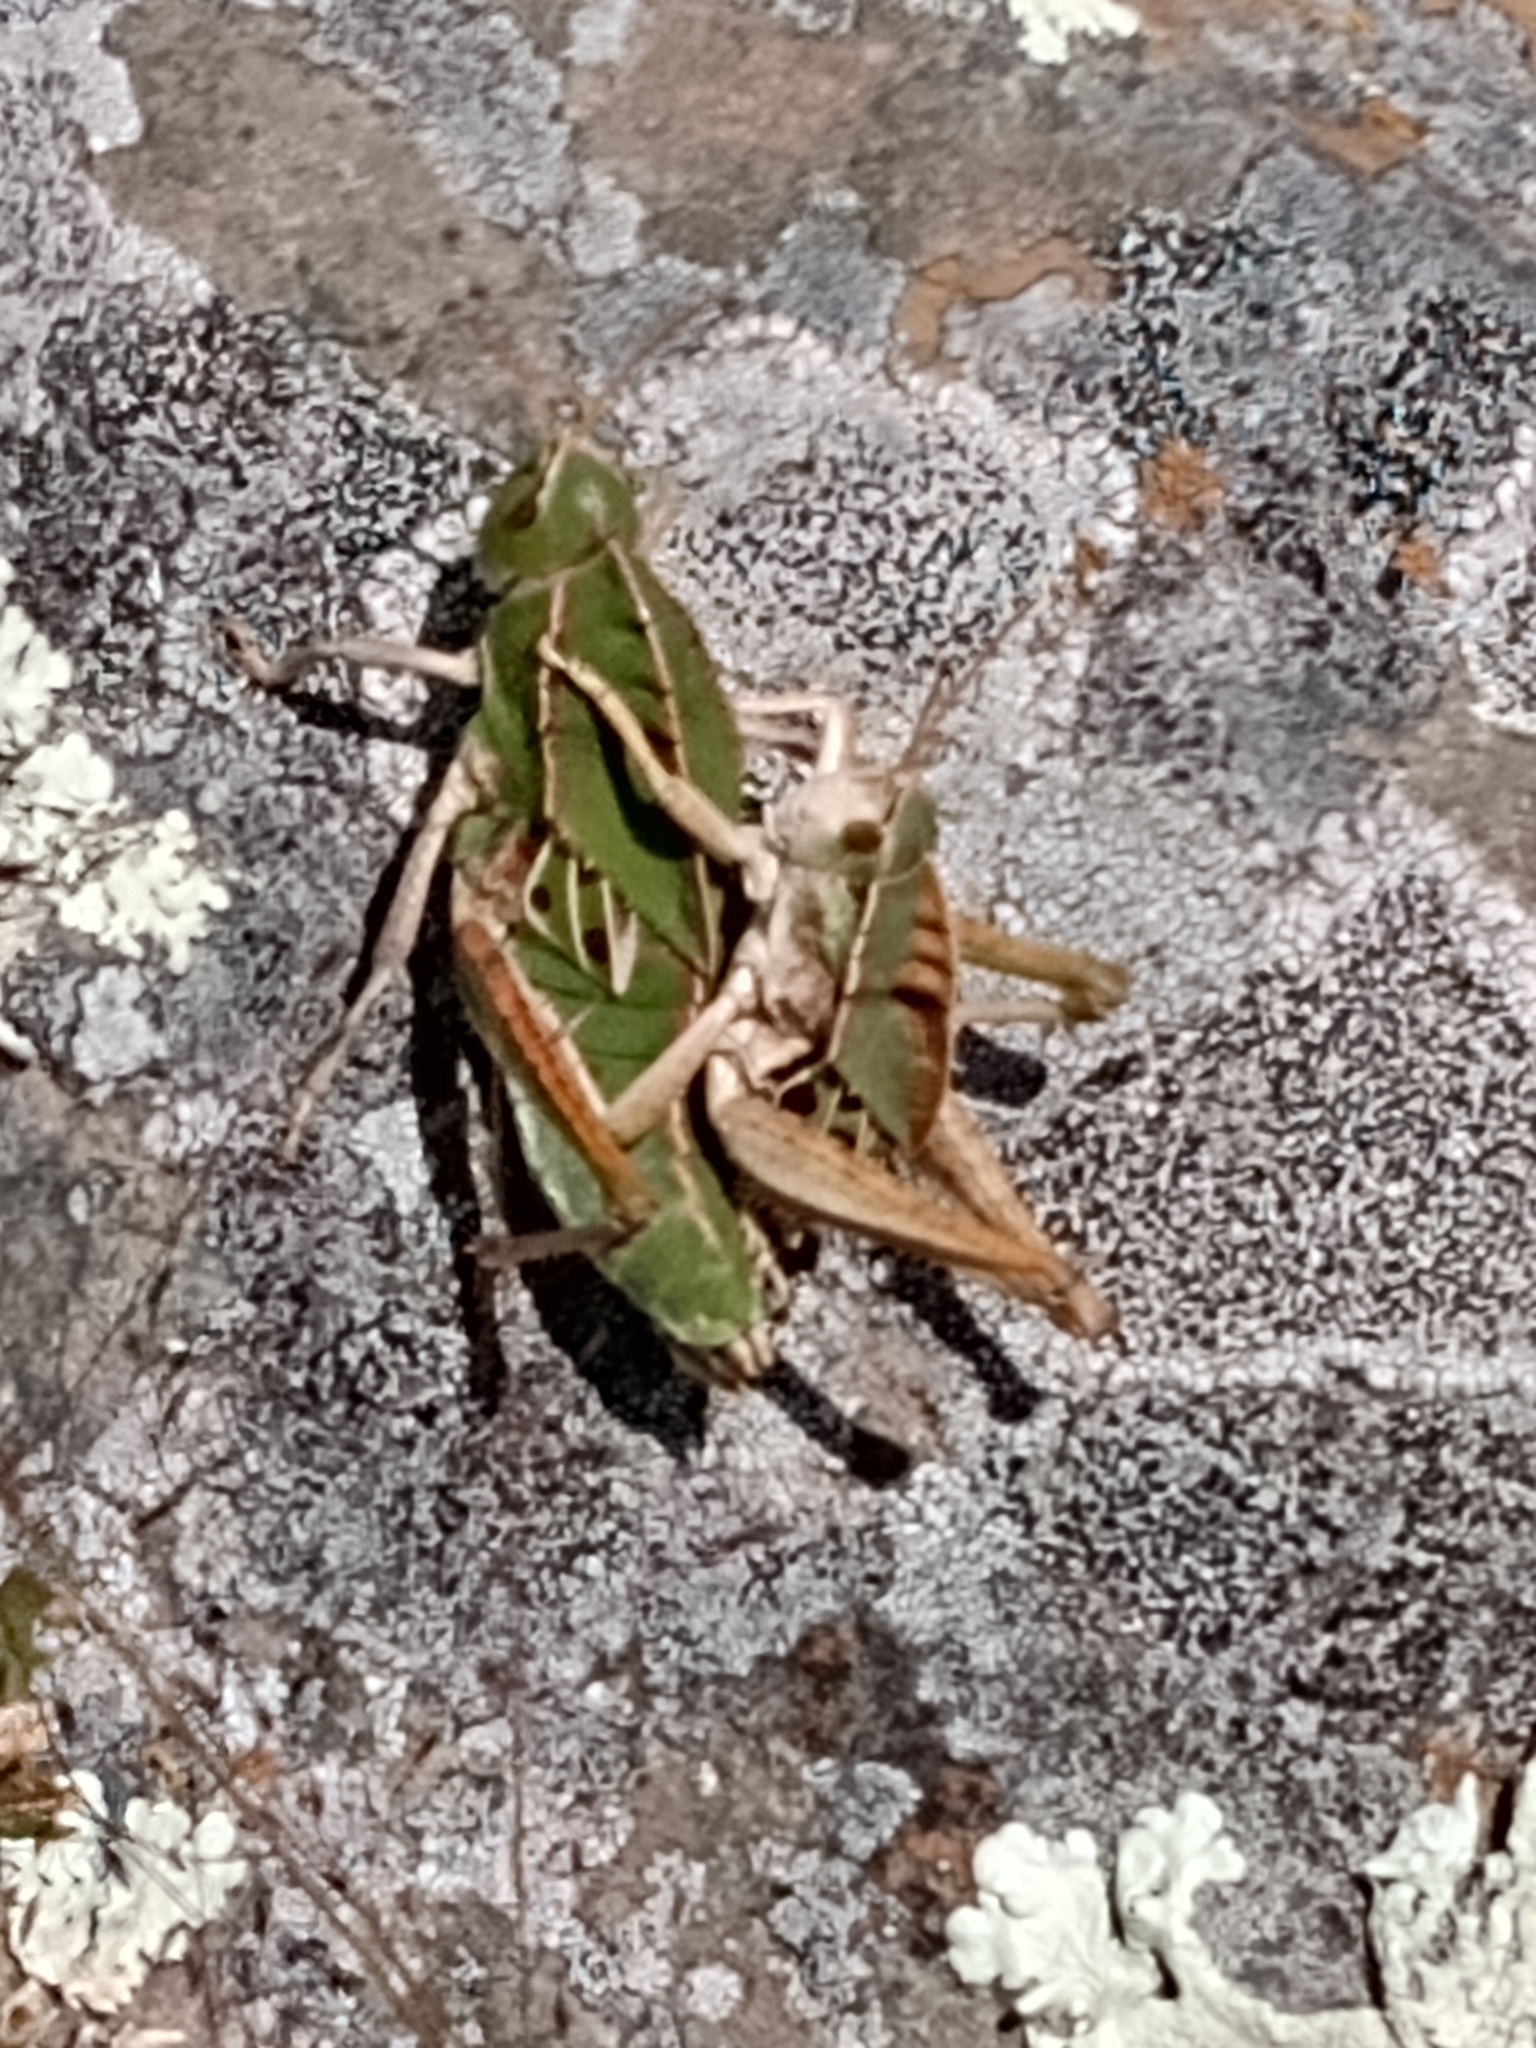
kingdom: Animalia
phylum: Arthropoda
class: Insecta
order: Orthoptera
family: Romaleidae
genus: Alcamenes
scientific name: Alcamenes granulatus
